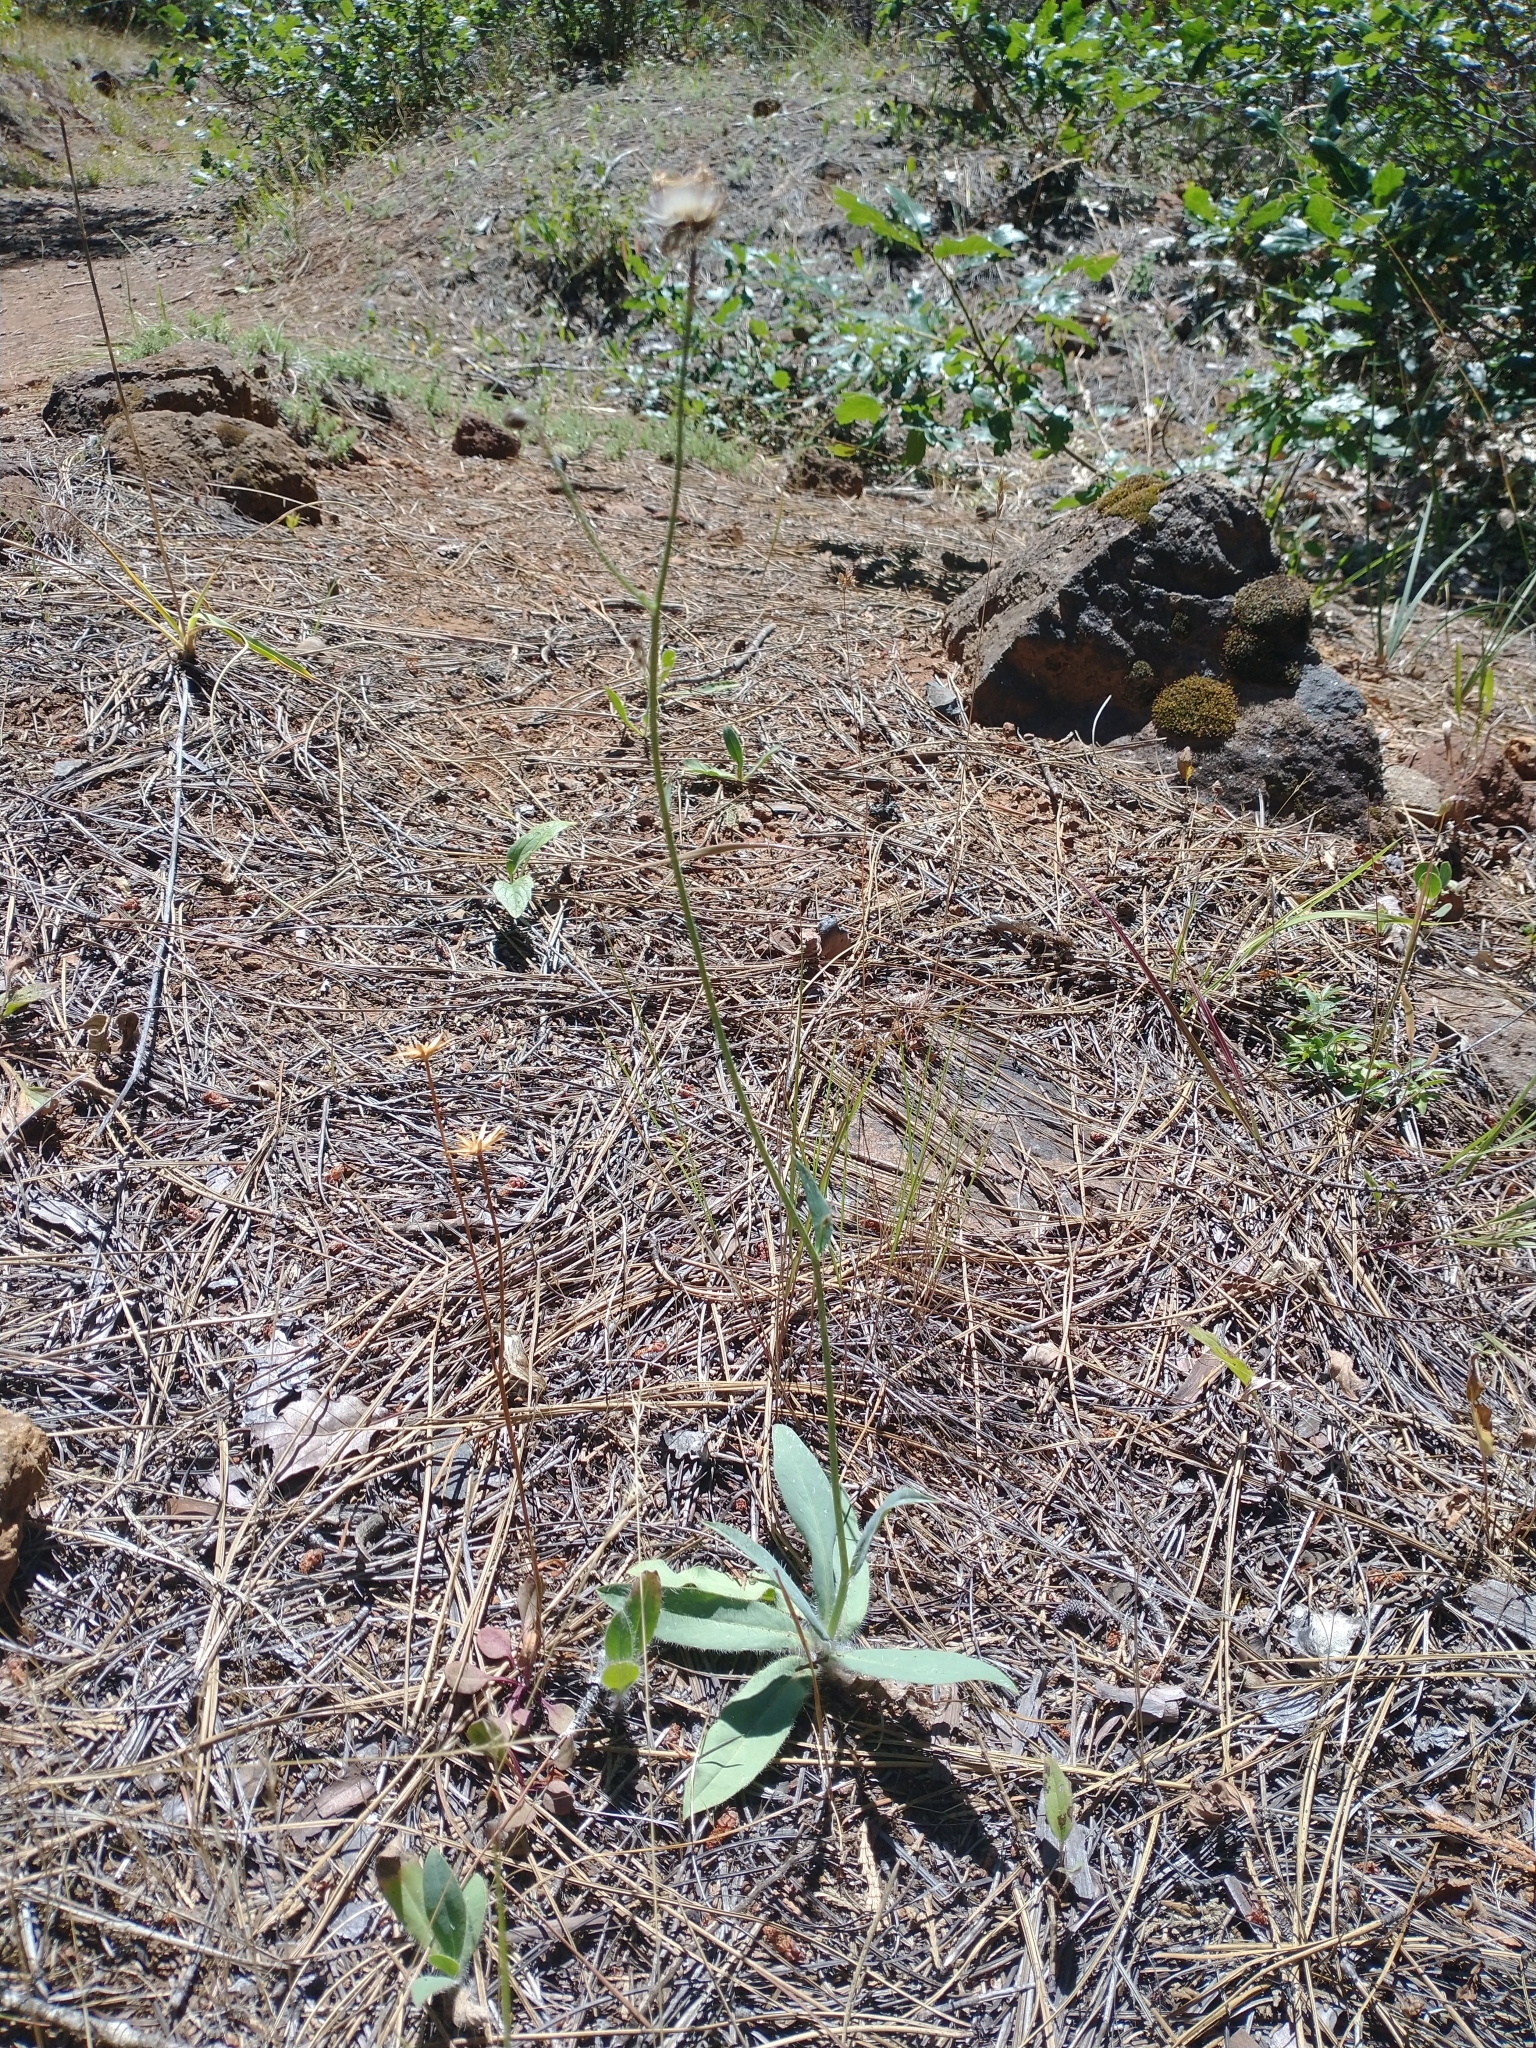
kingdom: Plantae
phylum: Tracheophyta
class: Magnoliopsida
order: Asterales
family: Asteraceae
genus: Hieracium
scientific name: Hieracium albiflorum
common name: White hawkweed
